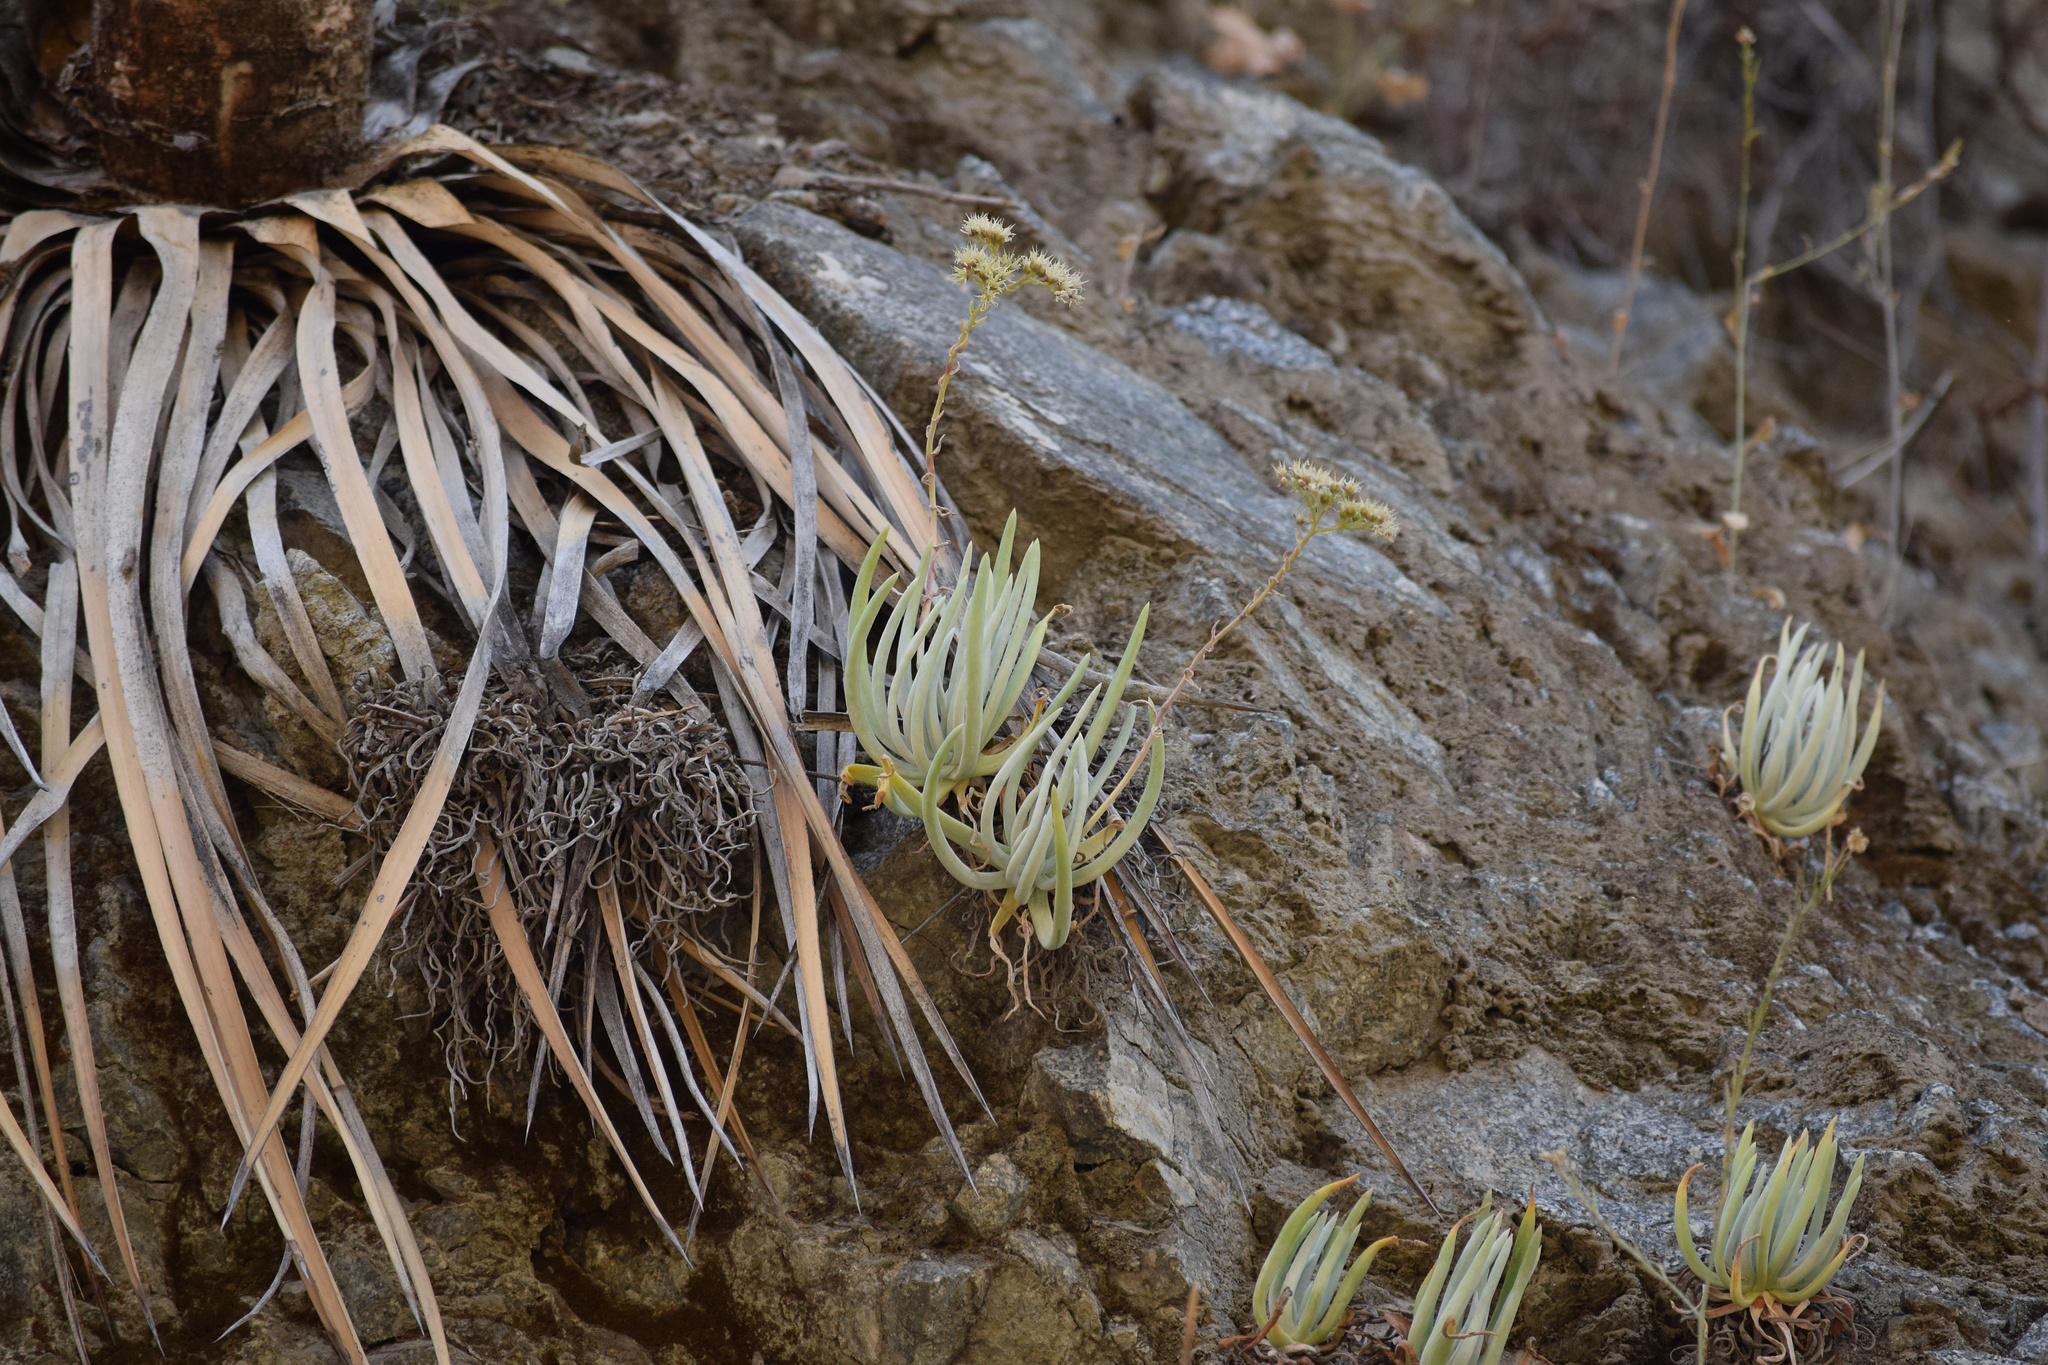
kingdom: Plantae
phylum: Tracheophyta
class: Magnoliopsida
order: Saxifragales
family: Crassulaceae
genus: Dudleya
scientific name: Dudleya densiflora
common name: San gabriel mountains dudleya
